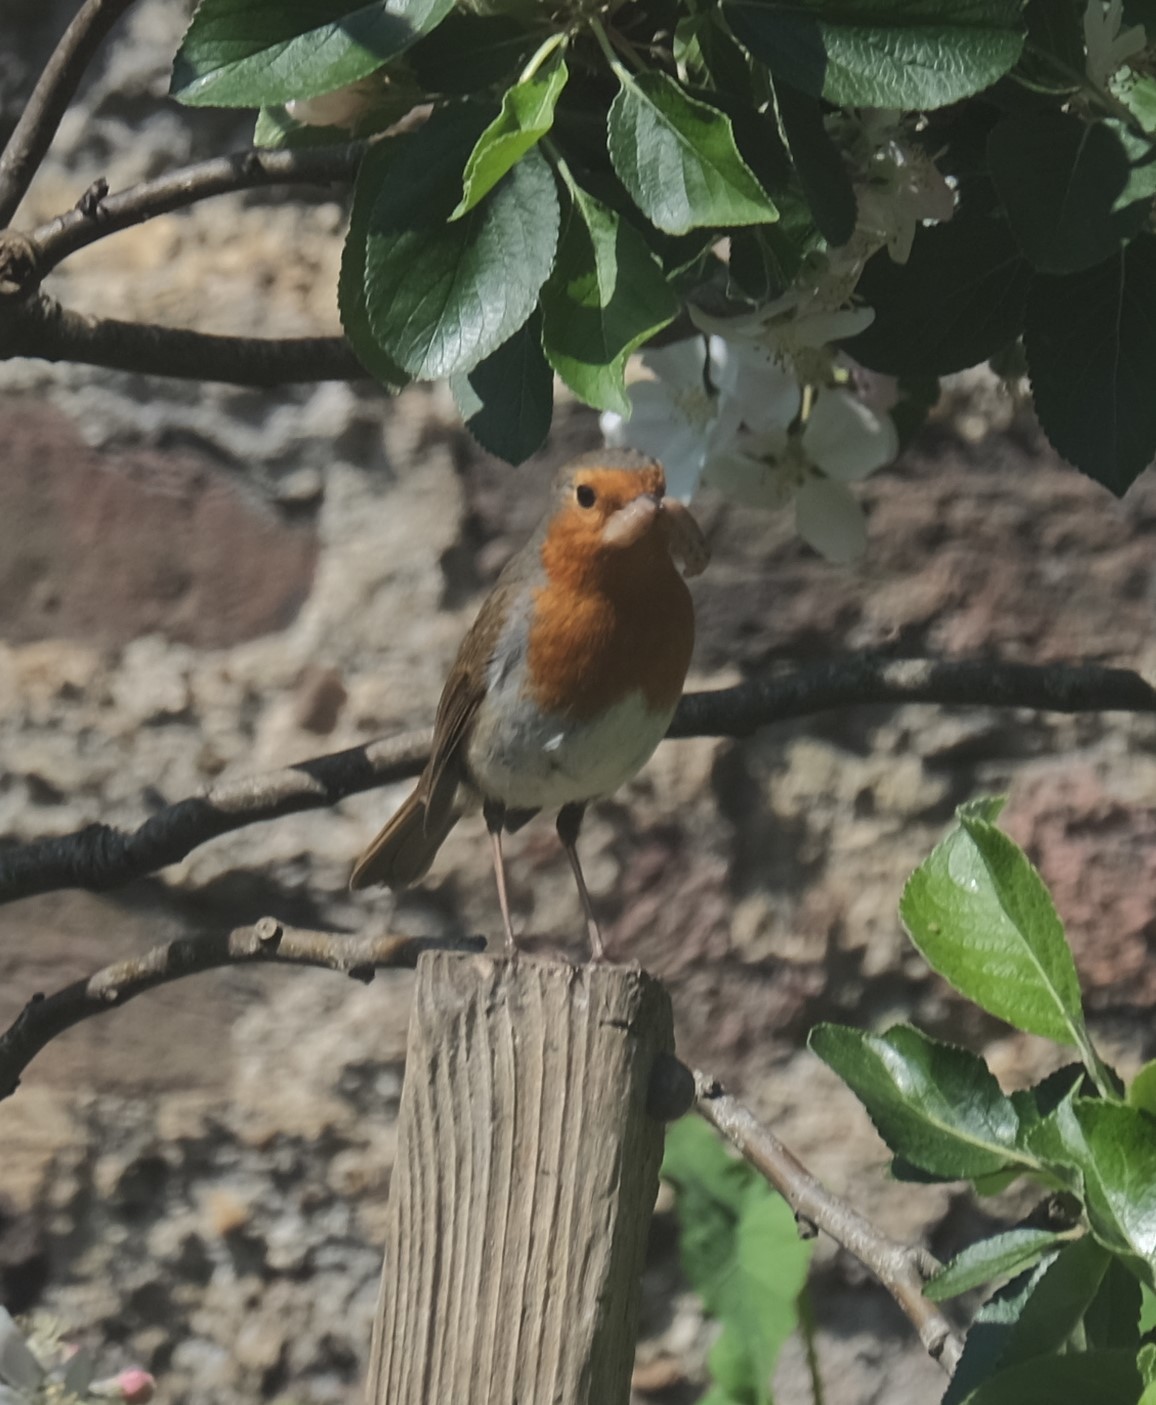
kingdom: Animalia
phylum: Chordata
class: Aves
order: Passeriformes
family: Muscicapidae
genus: Erithacus
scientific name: Erithacus rubecula
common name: European robin
